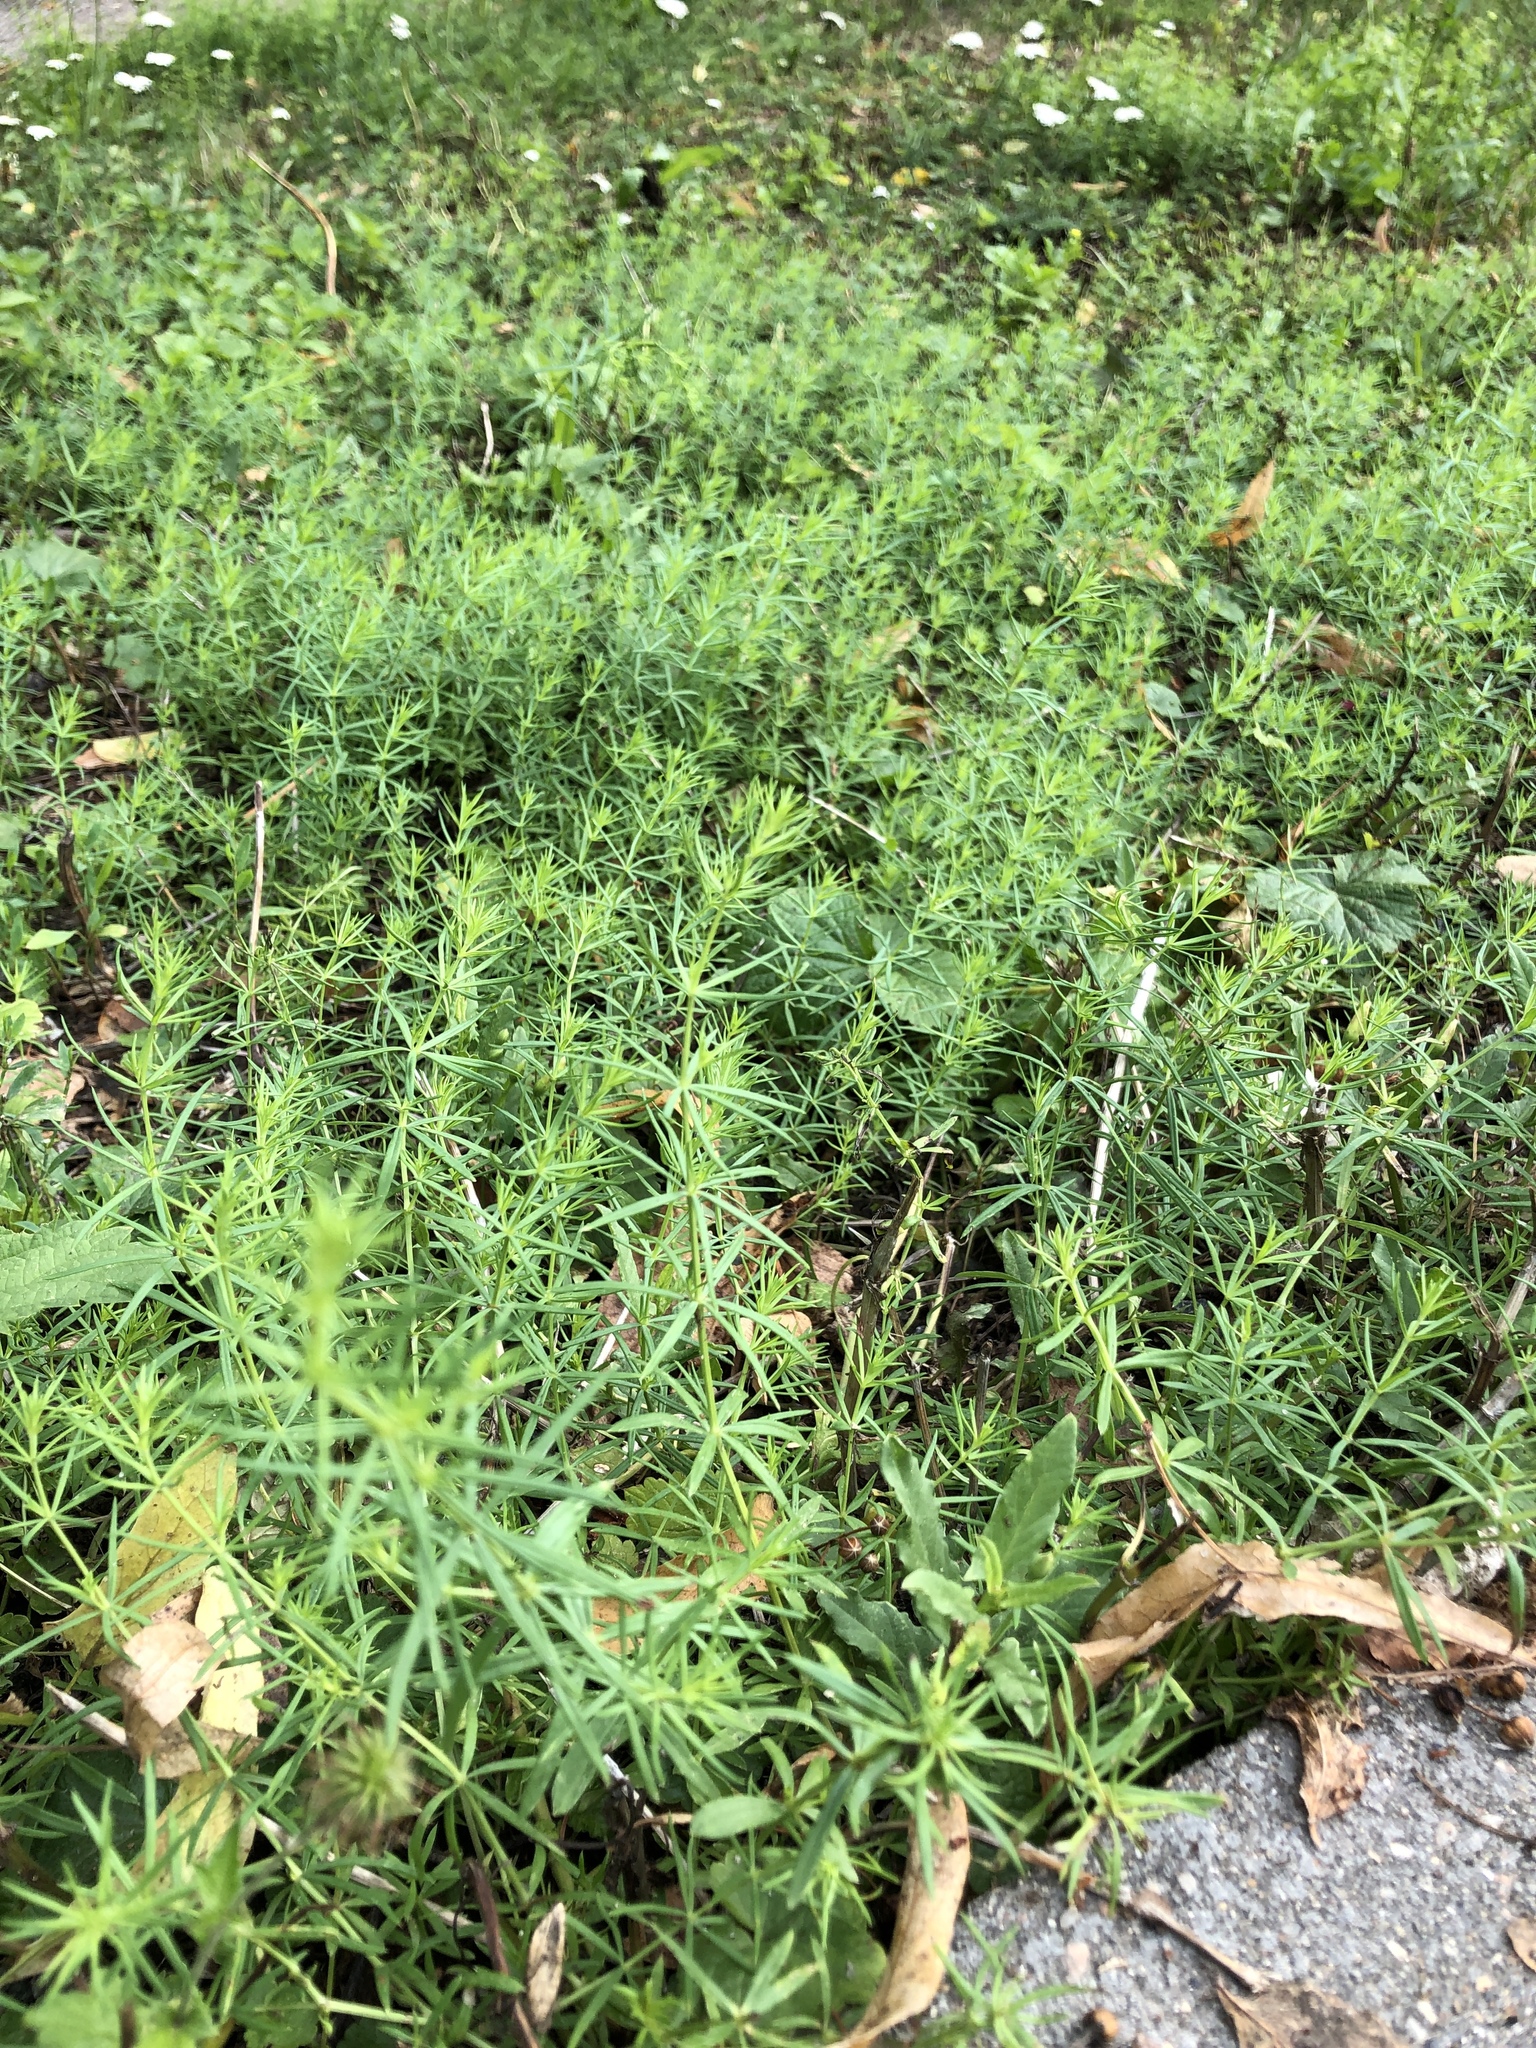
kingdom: Plantae
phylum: Tracheophyta
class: Magnoliopsida
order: Gentianales
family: Rubiaceae
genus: Galium
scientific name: Galium verum
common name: Lady's bedstraw
